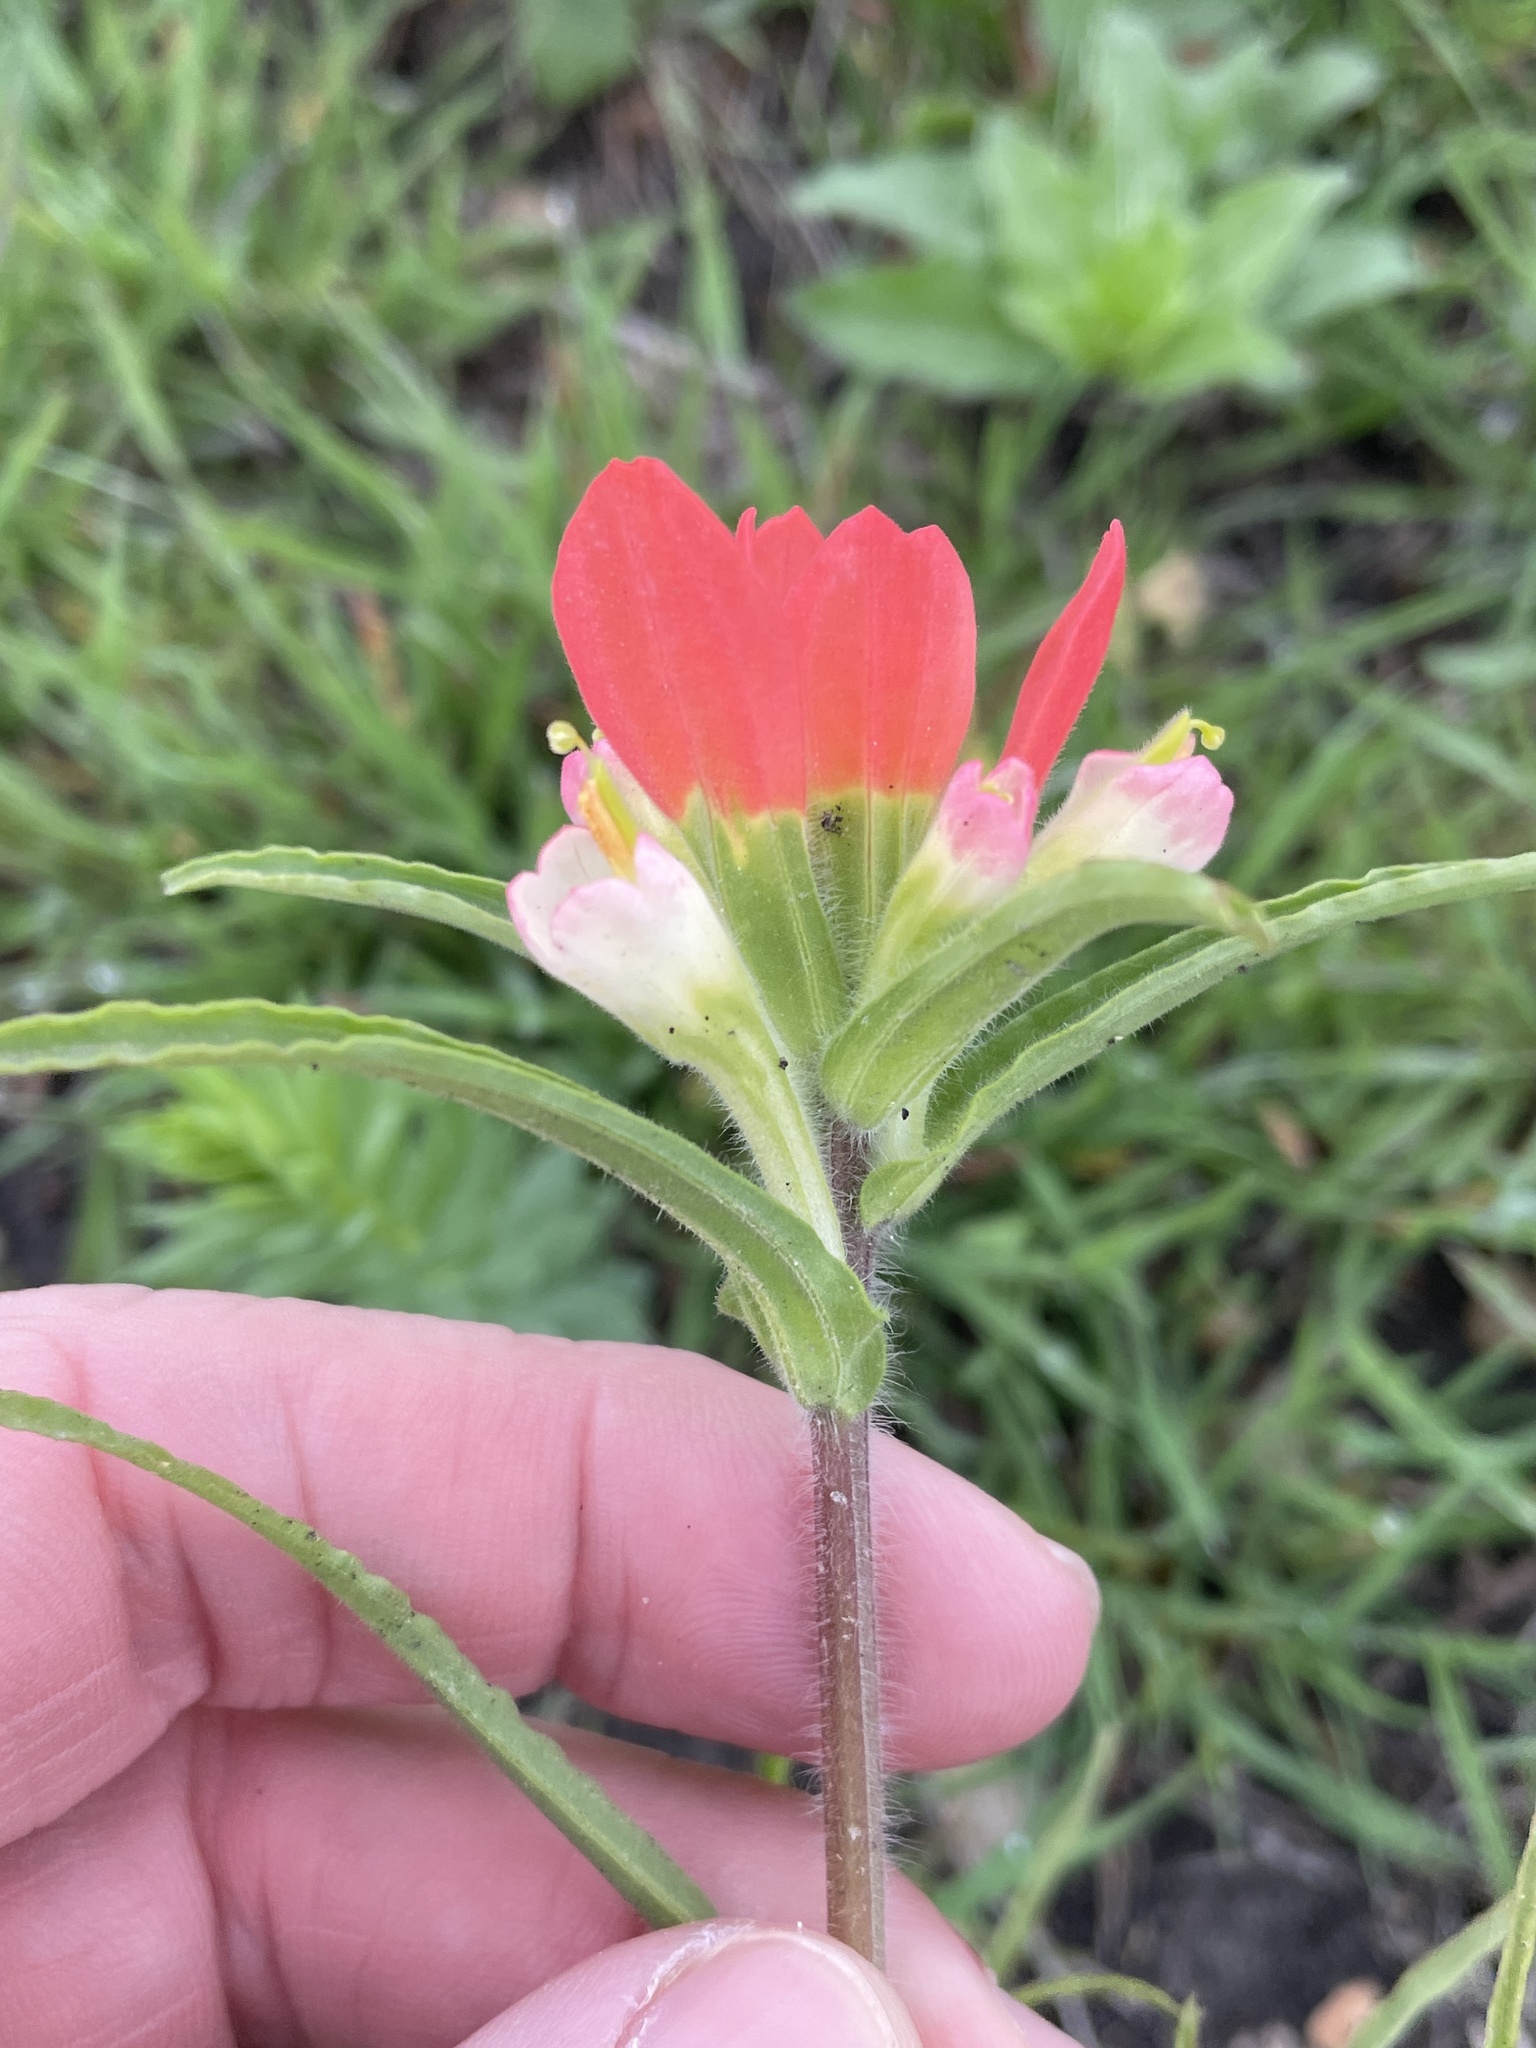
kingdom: Plantae
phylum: Tracheophyta
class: Magnoliopsida
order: Lamiales
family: Orobanchaceae
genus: Castilleja
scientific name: Castilleja indivisa
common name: Texas paintbrush
